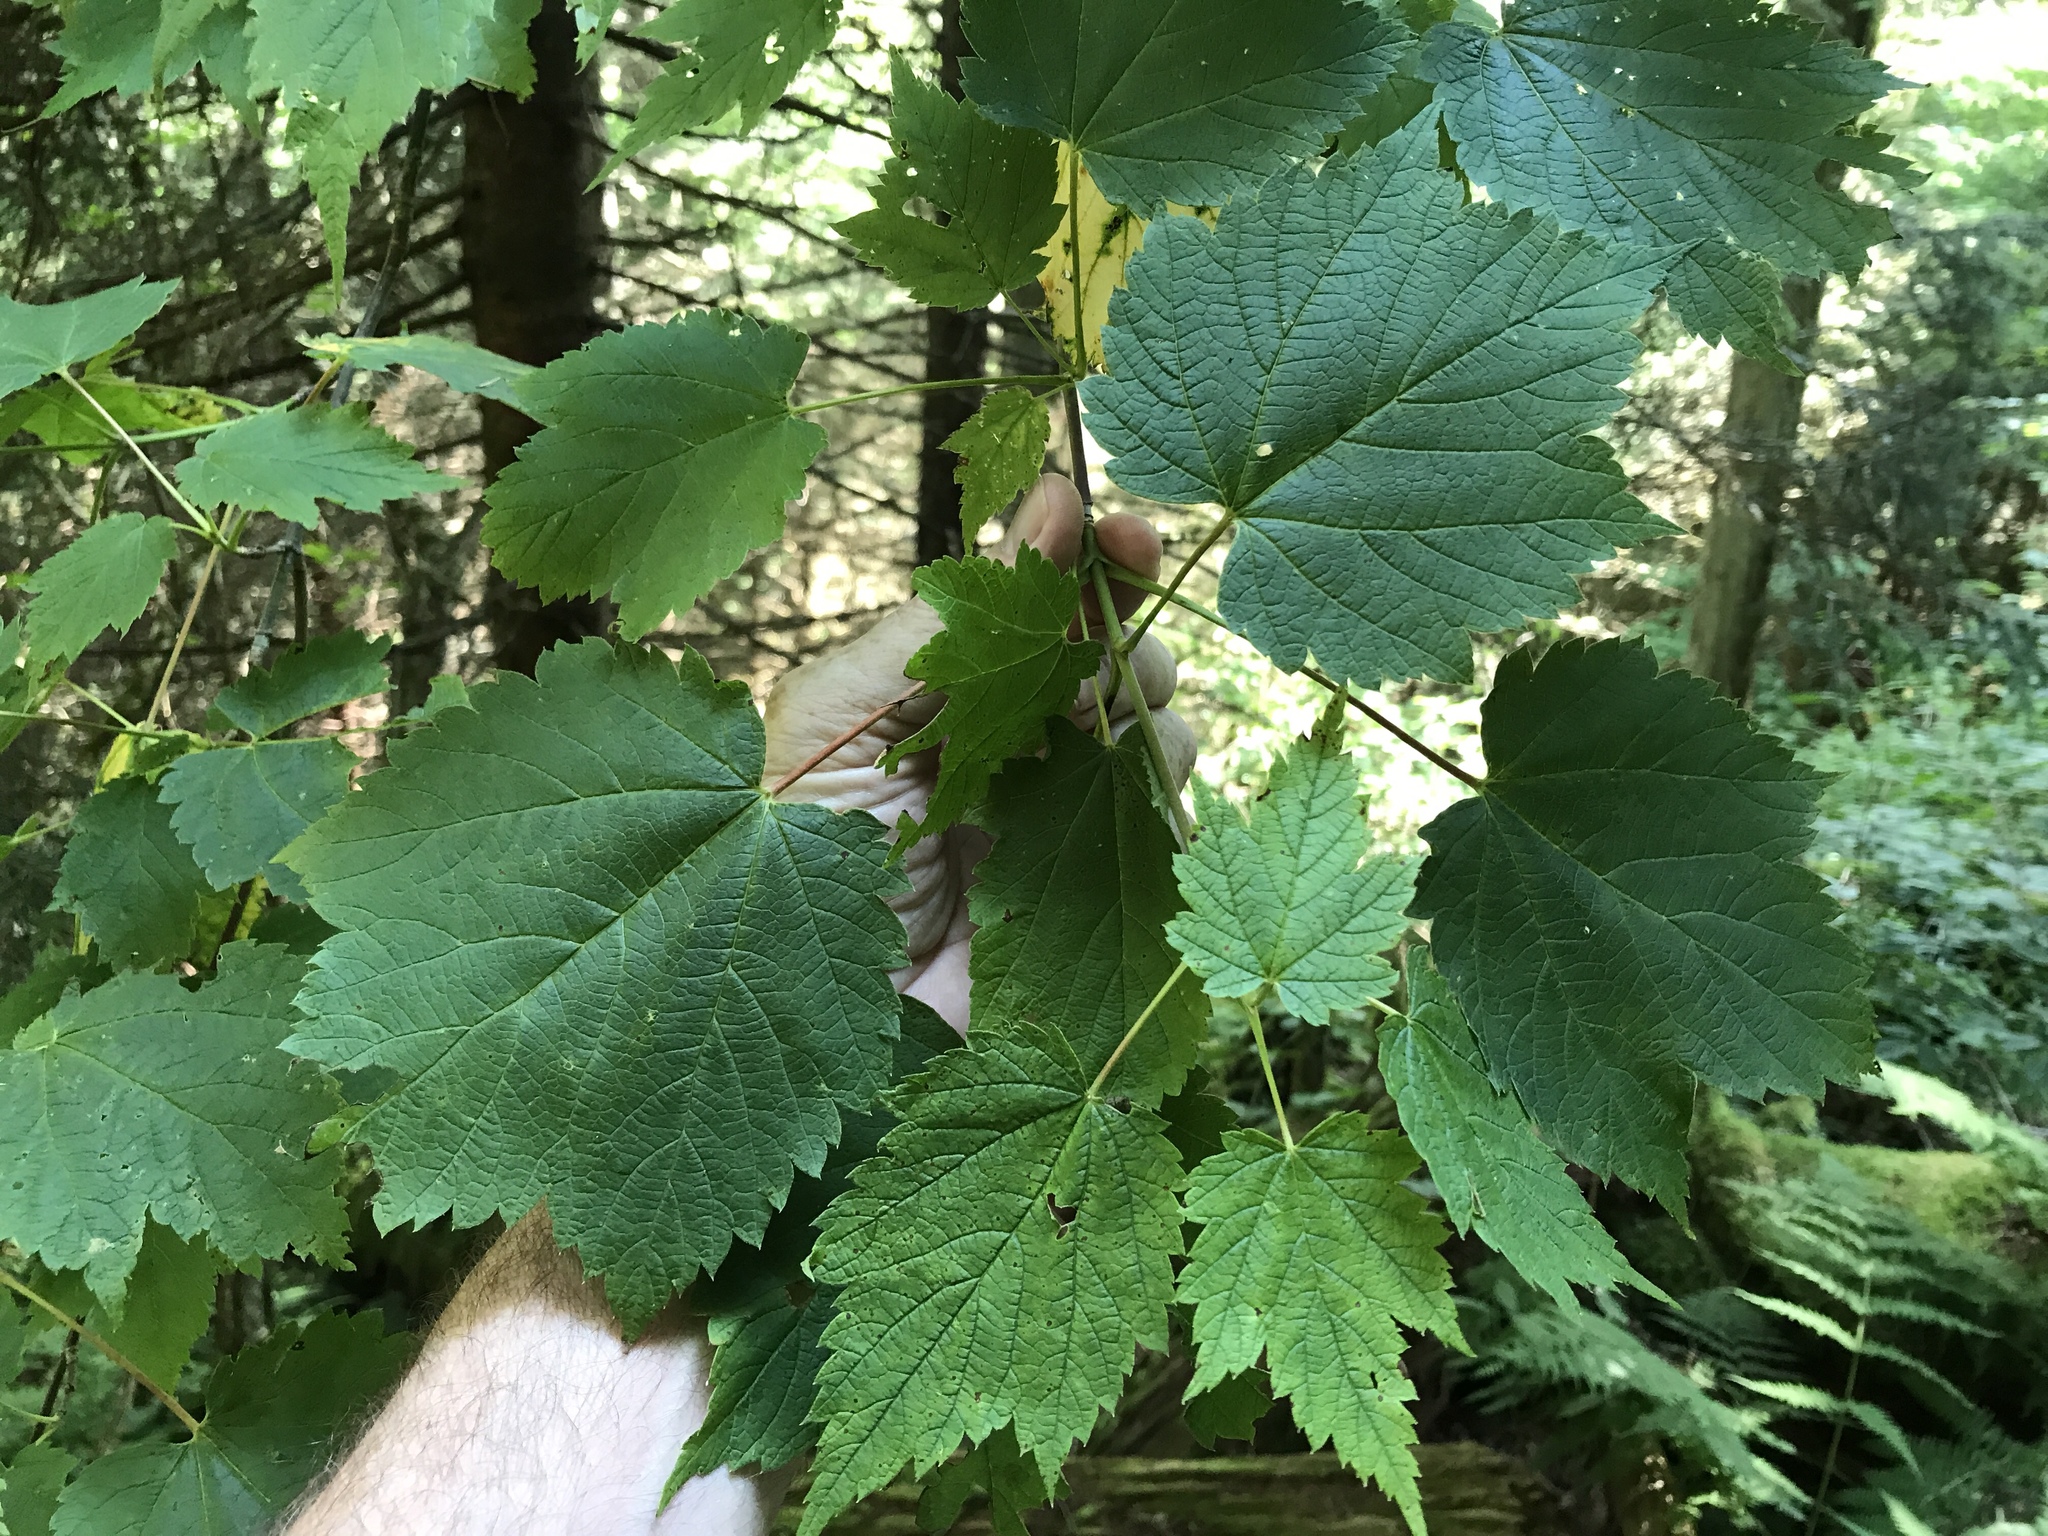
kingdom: Plantae
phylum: Tracheophyta
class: Magnoliopsida
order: Sapindales
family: Sapindaceae
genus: Acer
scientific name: Acer spicatum
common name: Mountain maple
